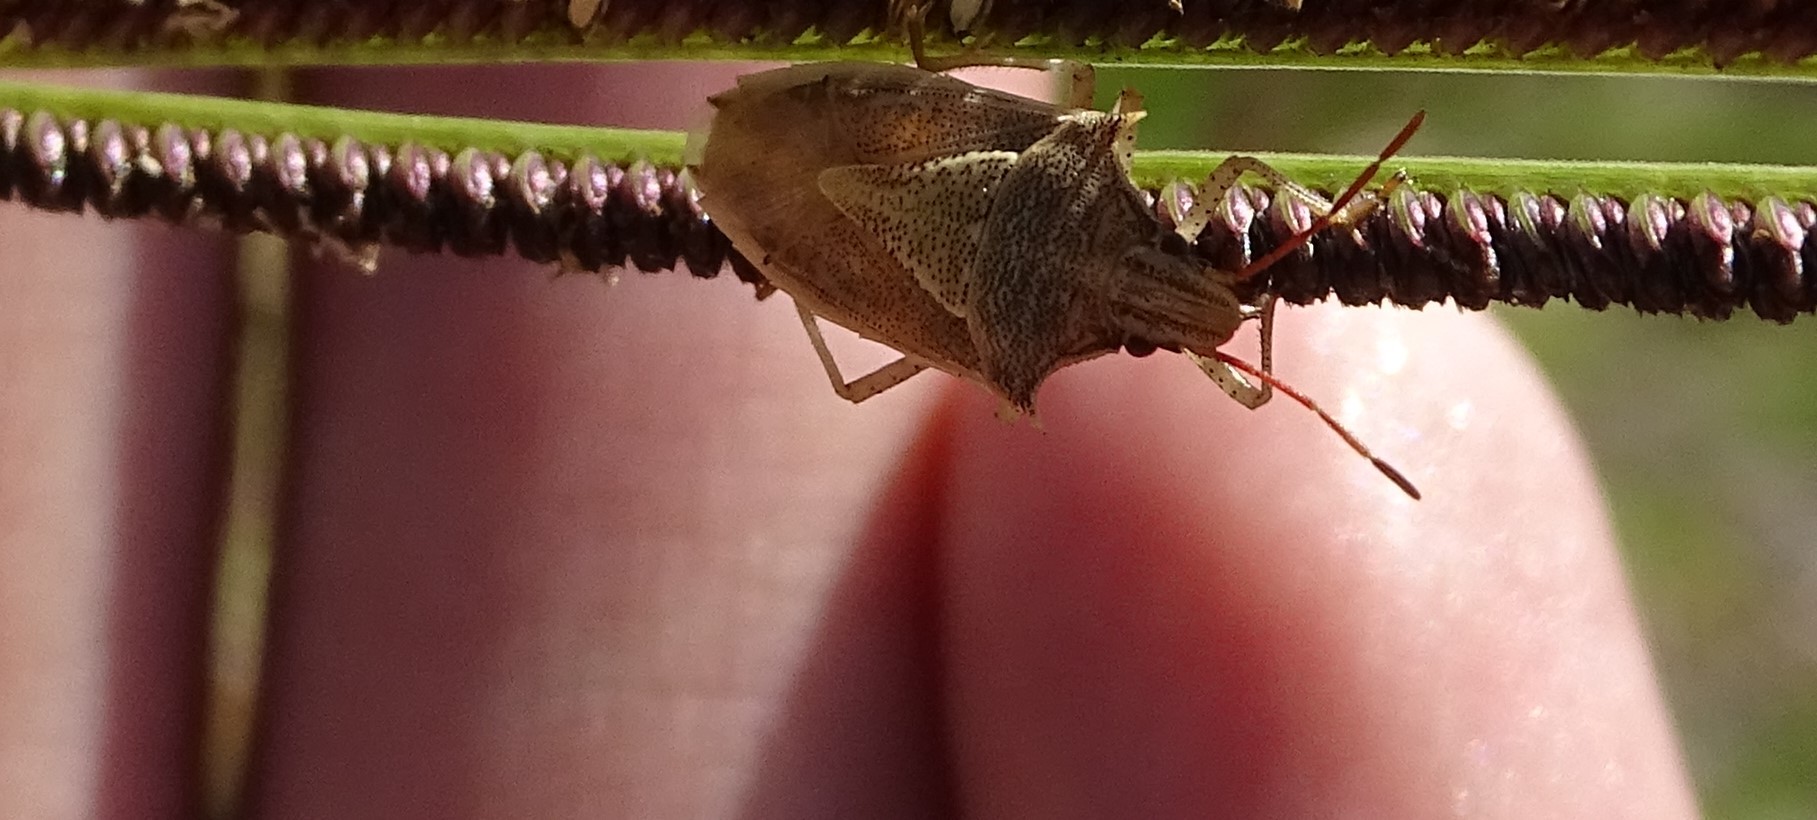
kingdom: Animalia
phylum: Arthropoda
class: Insecta
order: Hemiptera
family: Pentatomidae
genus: Oebalus
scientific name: Oebalus pugnax
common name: Rice stink bug
